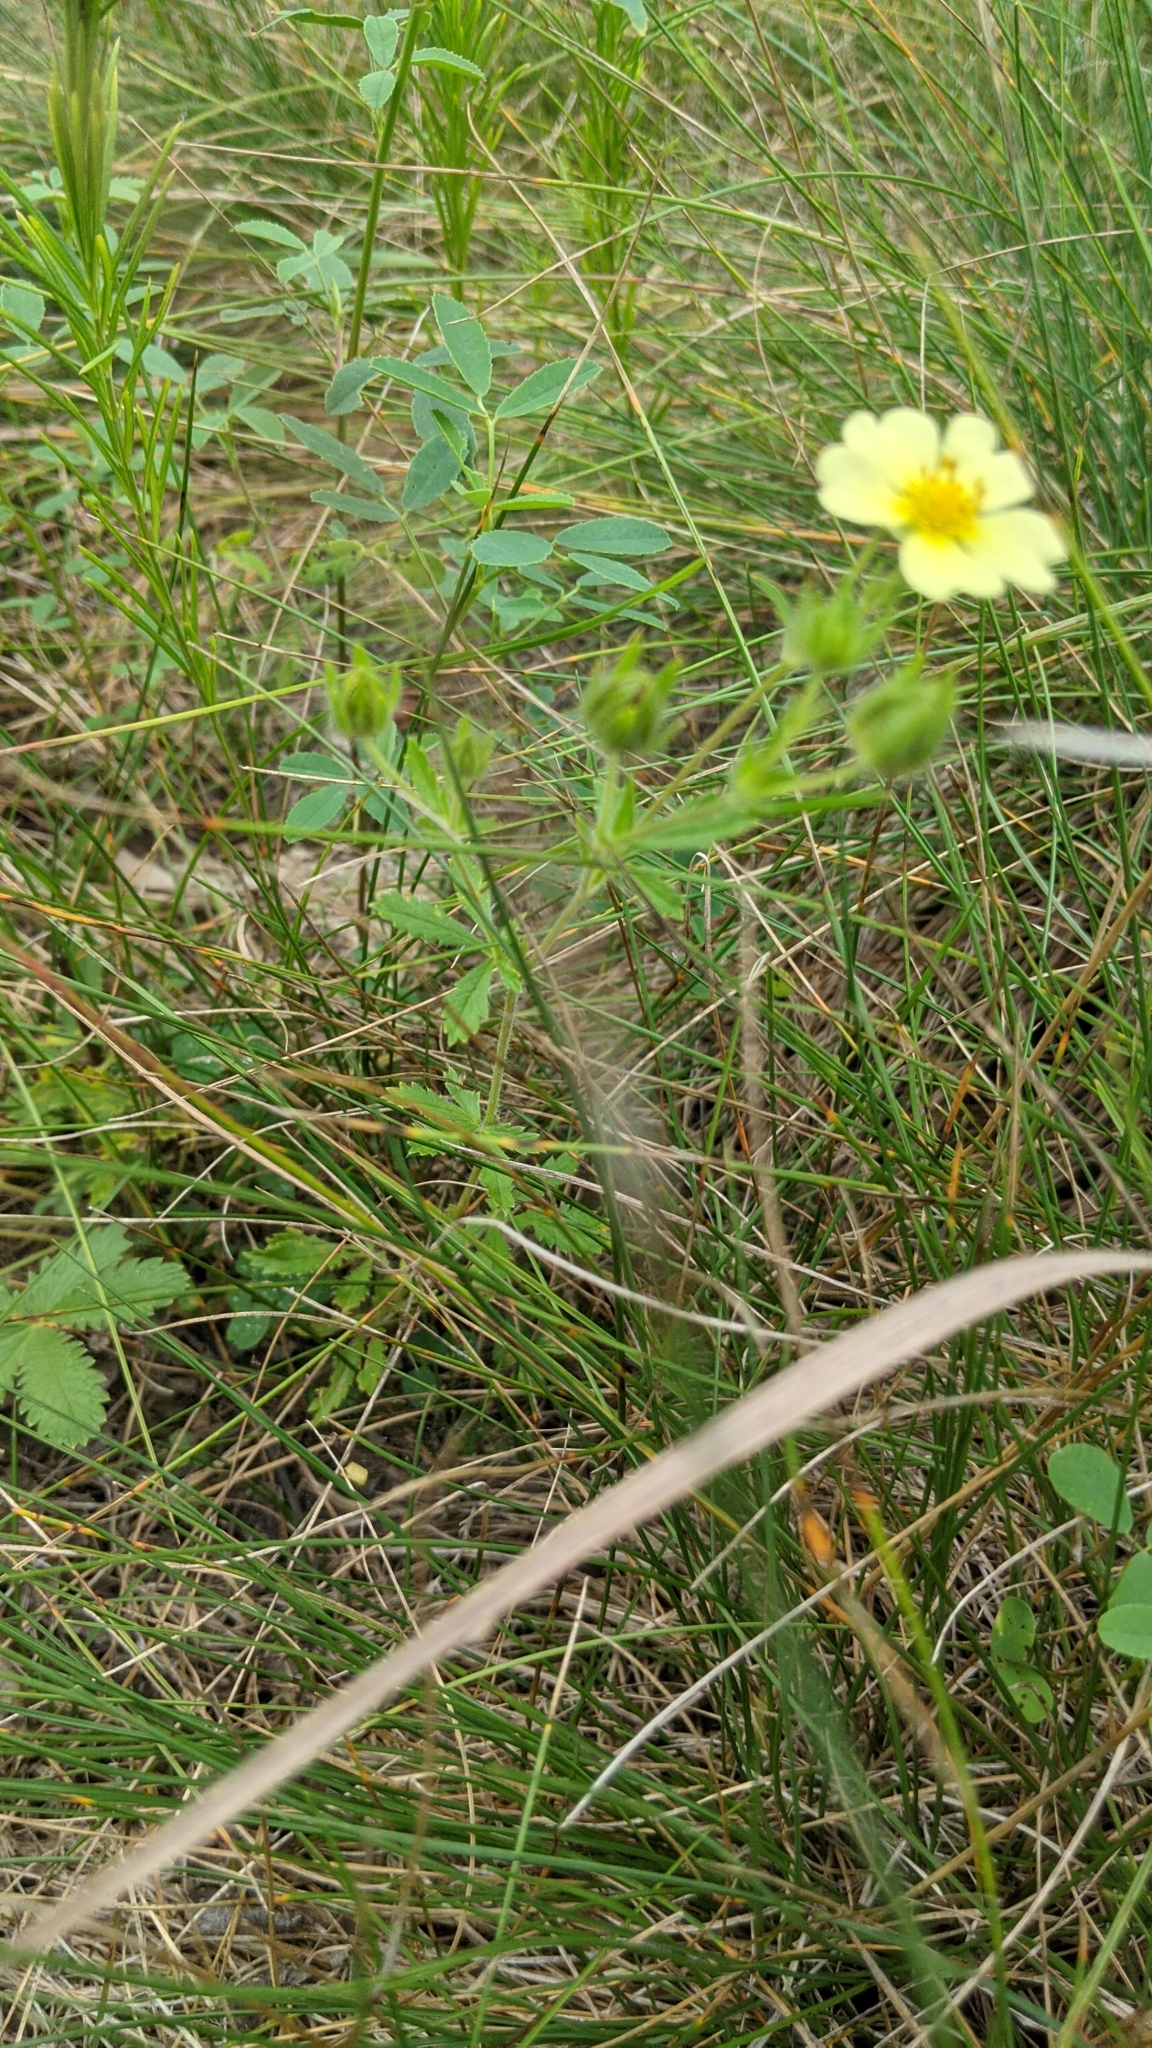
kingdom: Plantae
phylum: Tracheophyta
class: Magnoliopsida
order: Rosales
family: Rosaceae
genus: Potentilla
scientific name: Potentilla recta
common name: Sulphur cinquefoil
